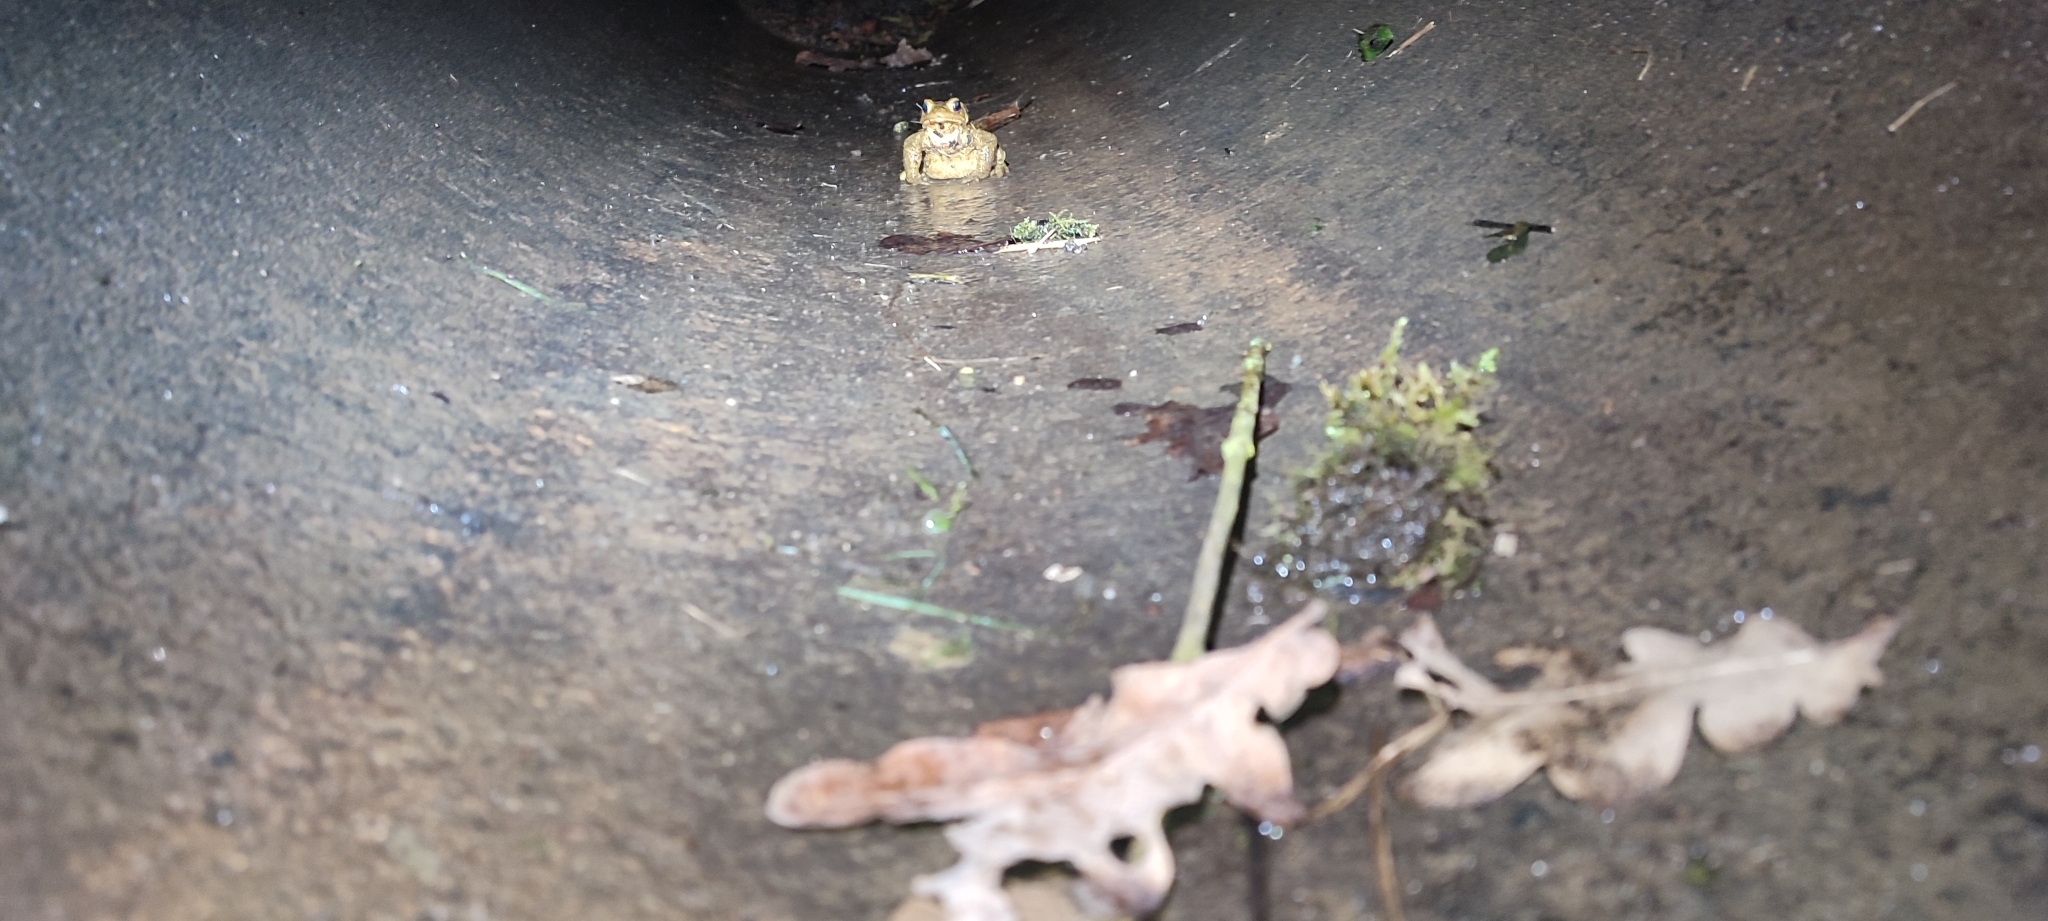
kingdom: Animalia
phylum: Chordata
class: Amphibia
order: Anura
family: Bufonidae
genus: Bufo
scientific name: Bufo spinosus
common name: Western common toad
